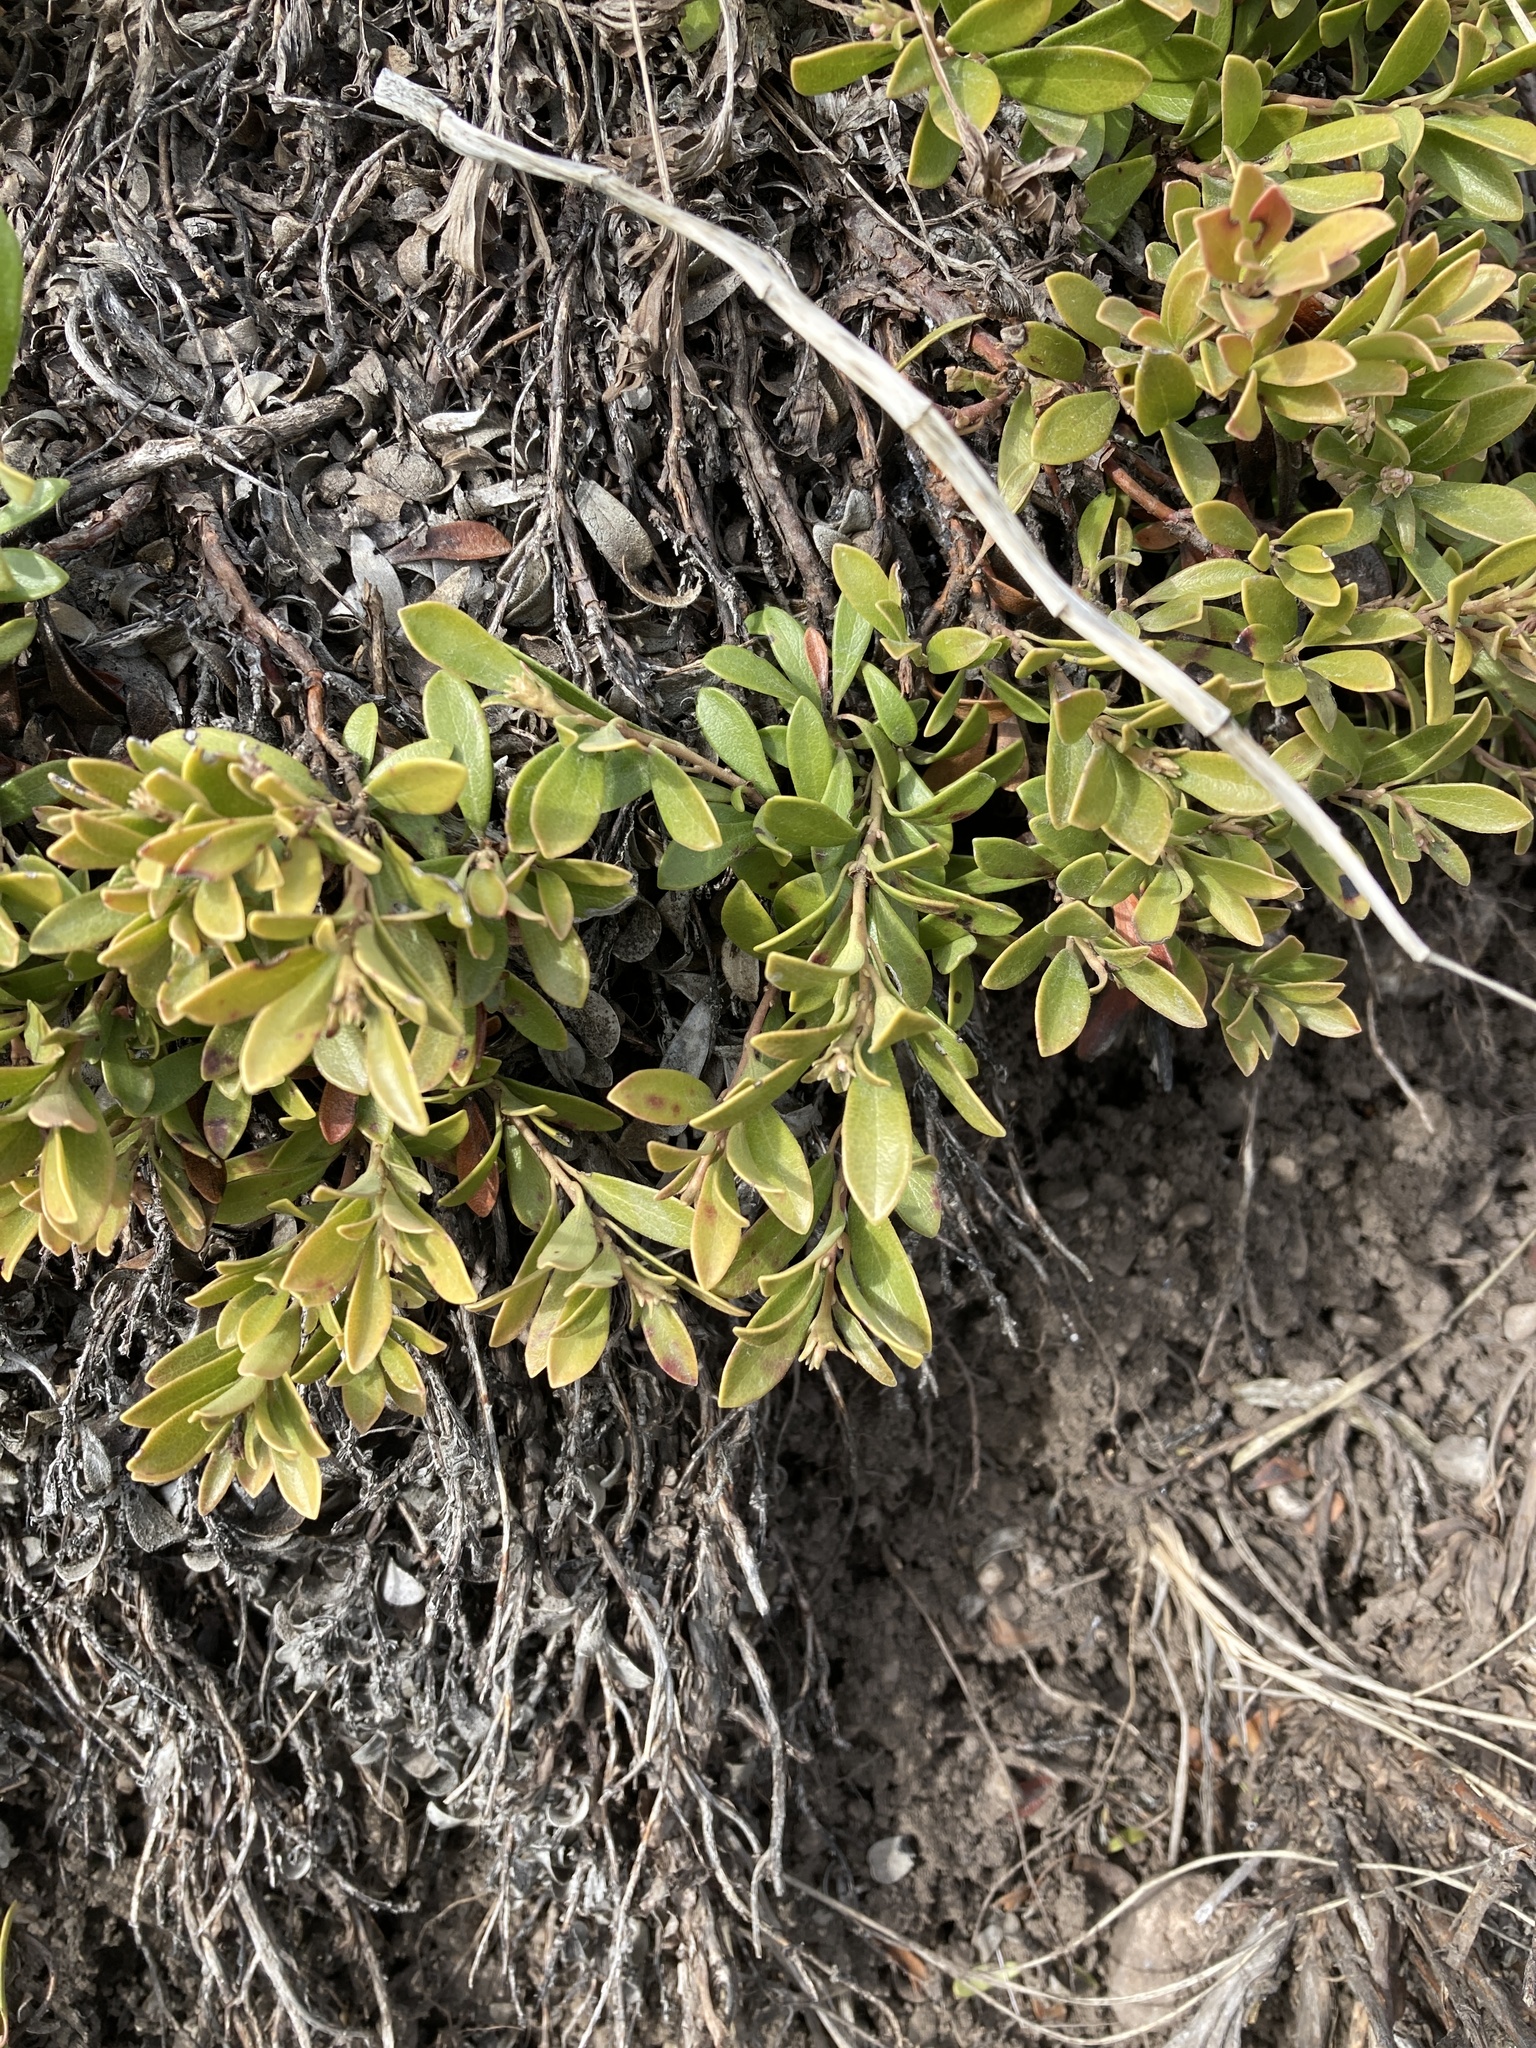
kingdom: Plantae
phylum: Tracheophyta
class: Magnoliopsida
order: Ericales
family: Ericaceae
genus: Arctostaphylos
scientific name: Arctostaphylos uva-ursi
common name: Bearberry
